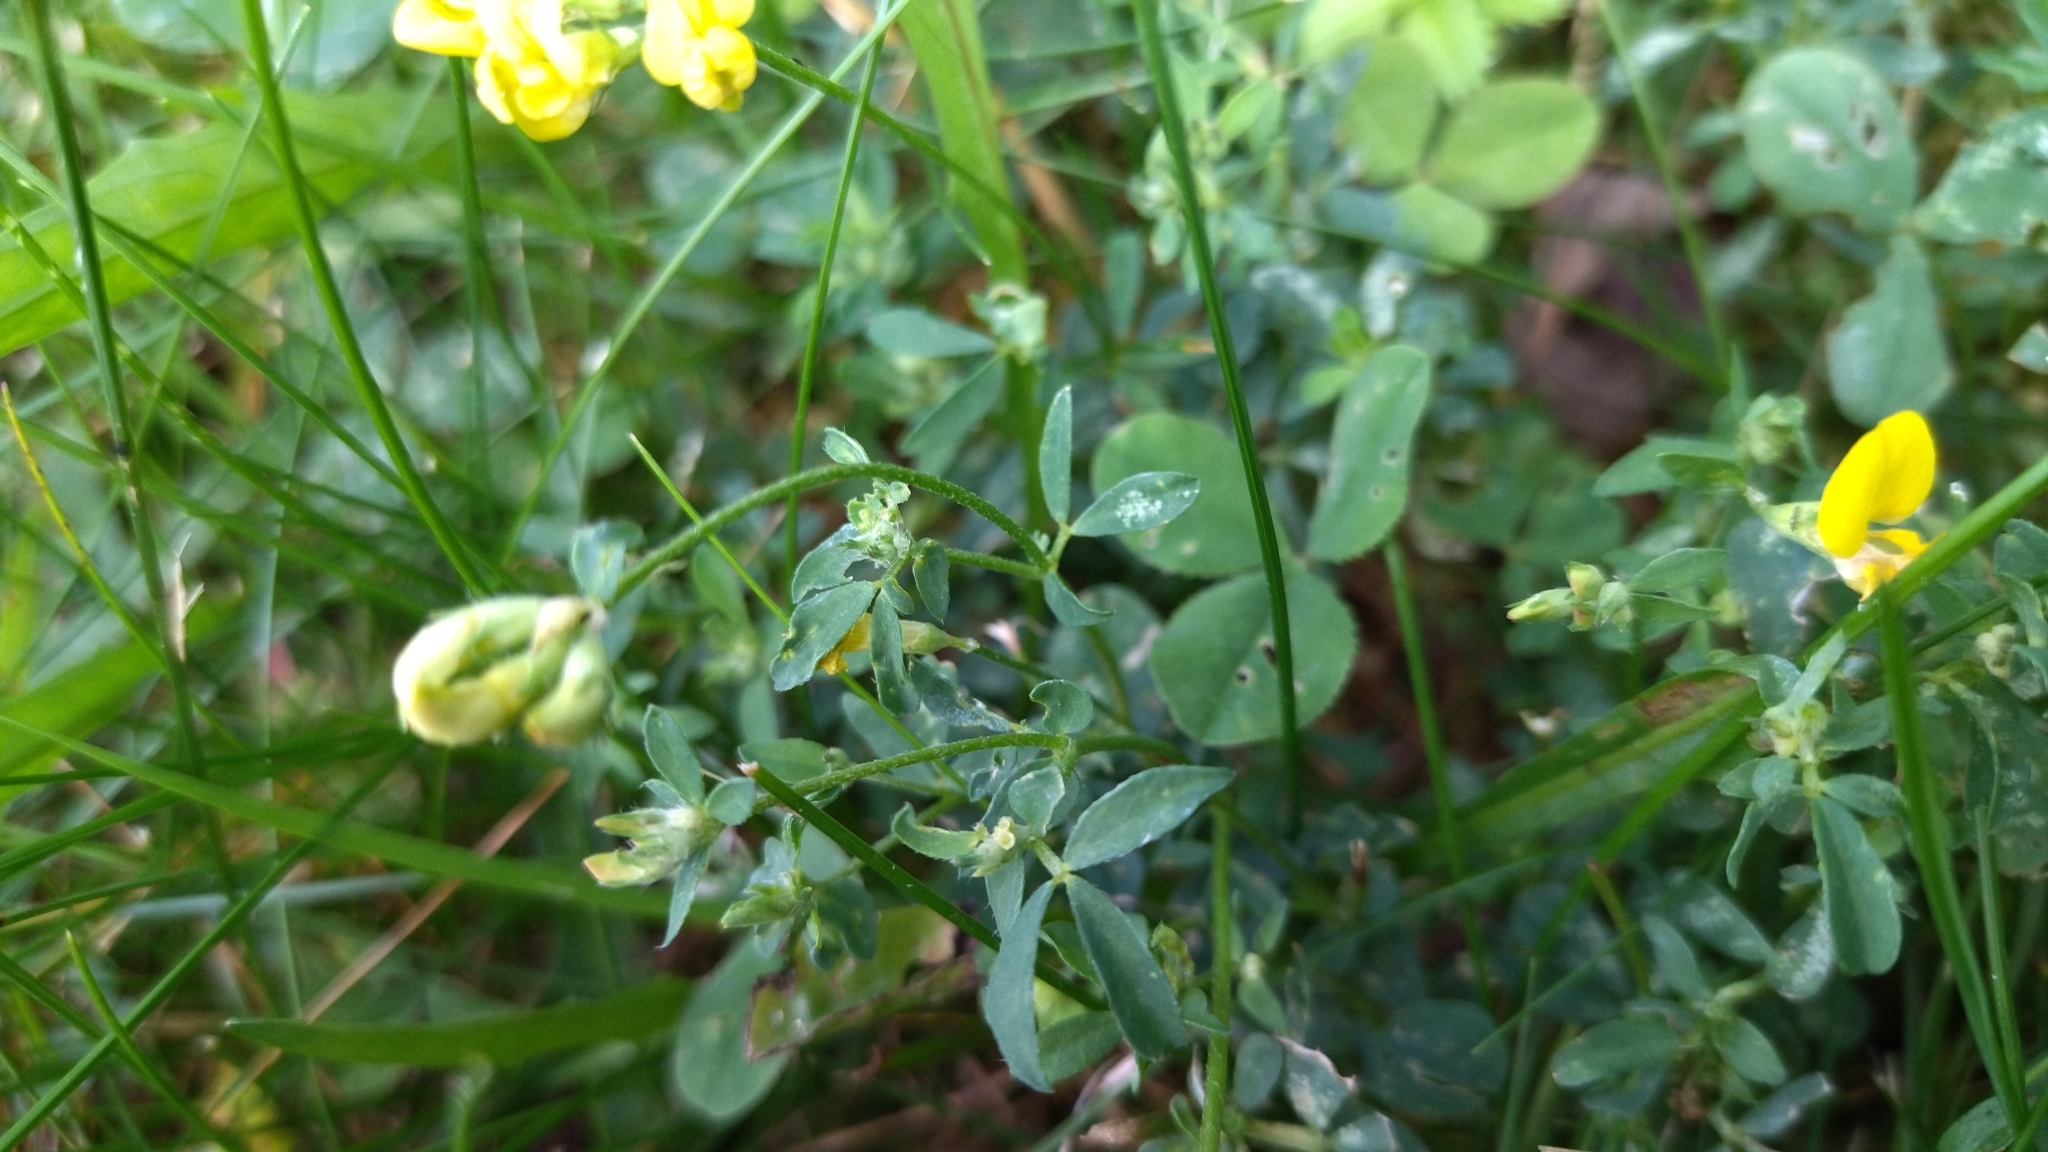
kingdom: Plantae
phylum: Tracheophyta
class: Magnoliopsida
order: Fabales
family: Fabaceae
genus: Lotus
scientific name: Lotus corniculatus
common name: Common bird's-foot-trefoil
